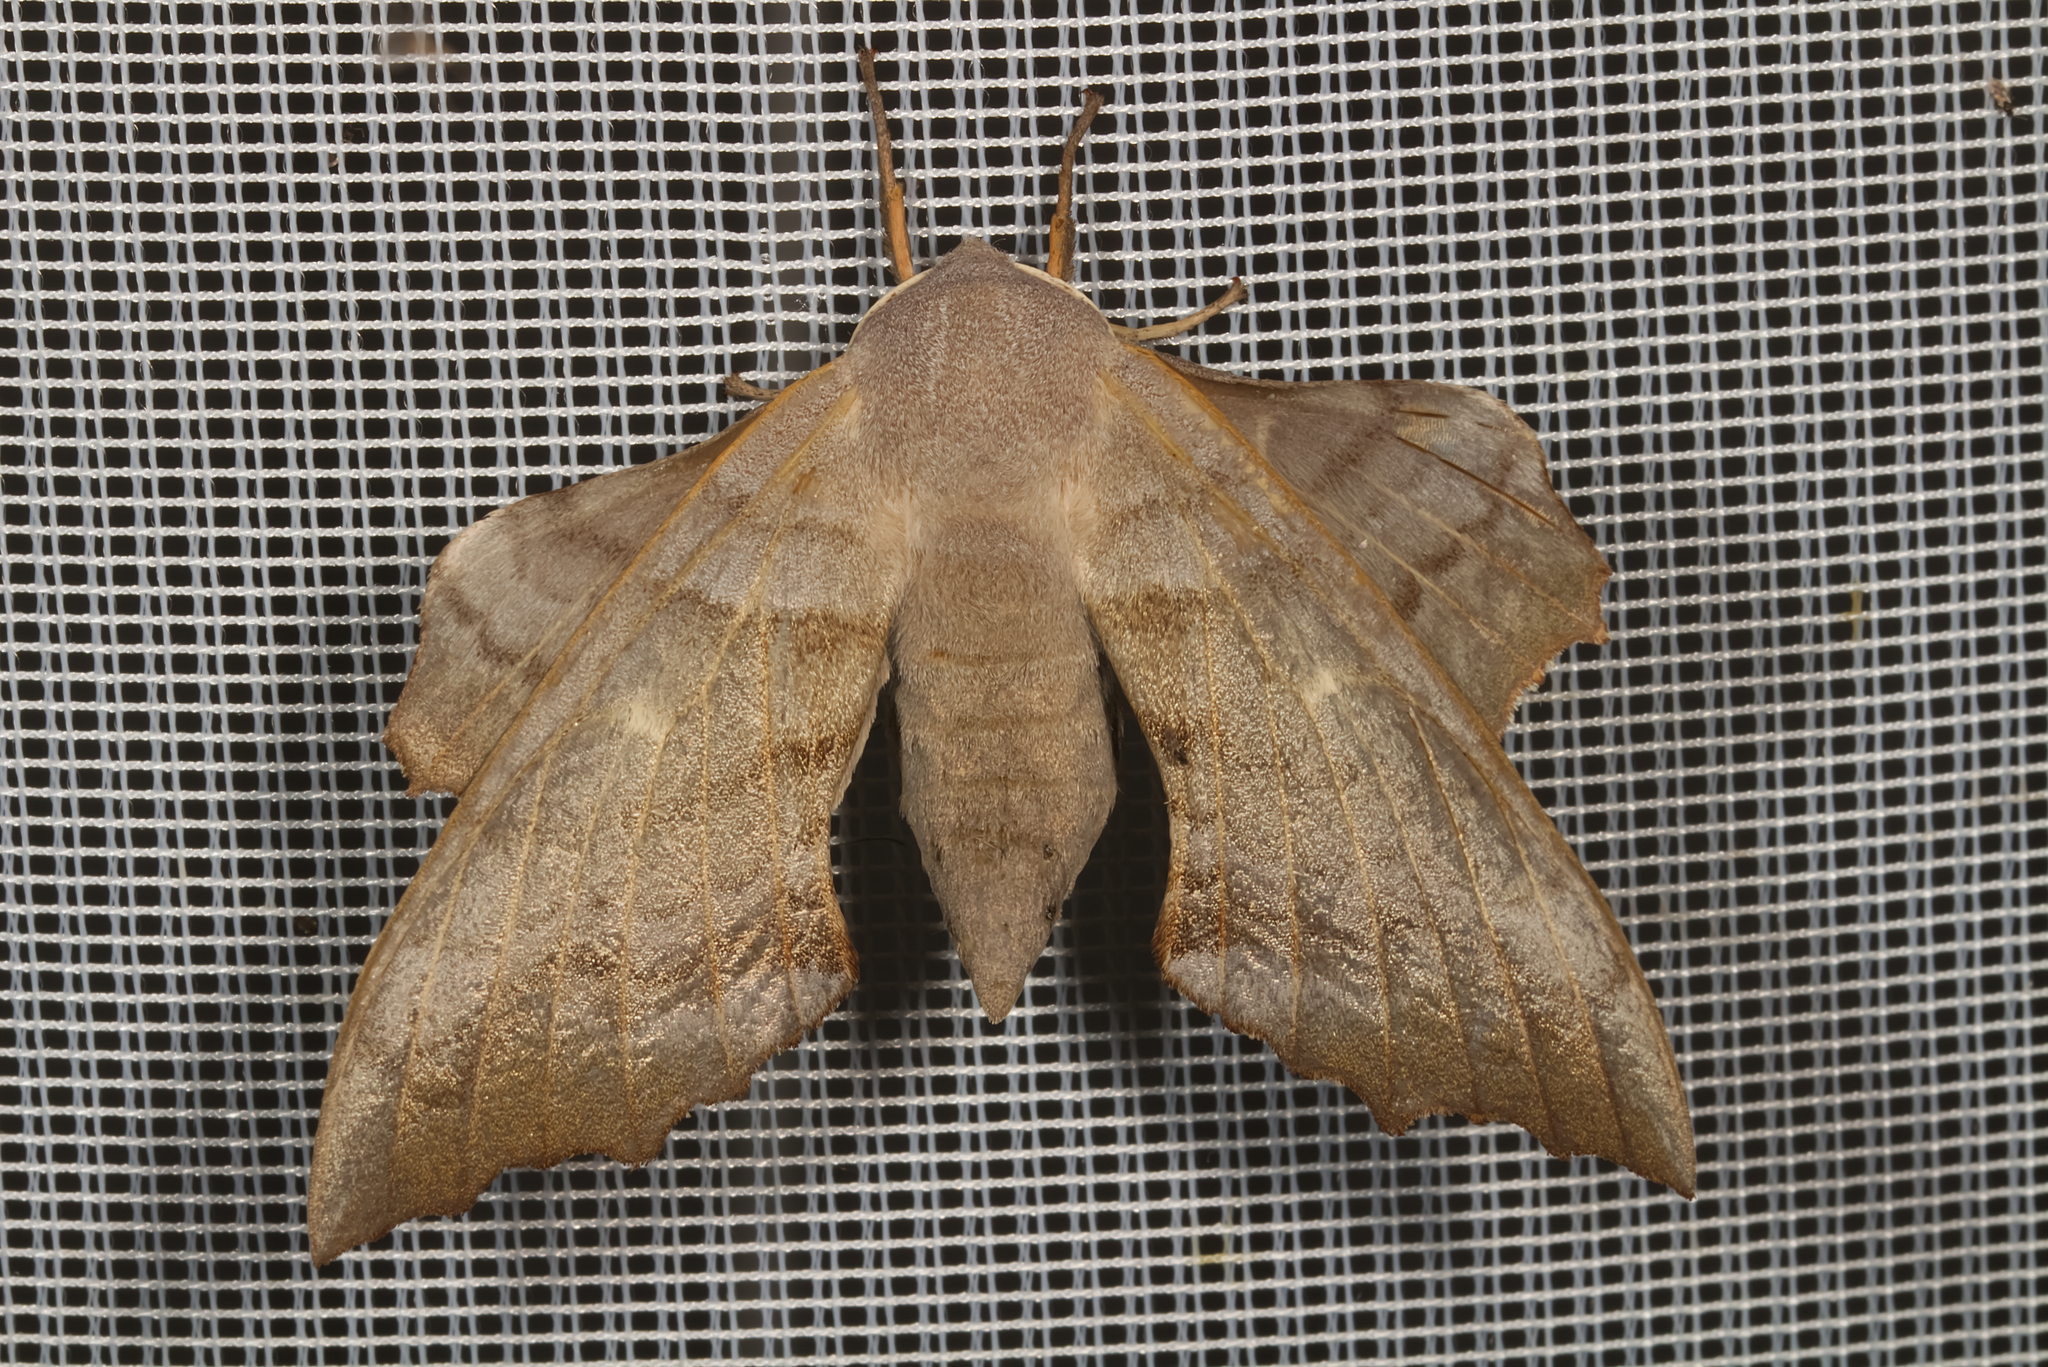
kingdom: Animalia
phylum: Arthropoda
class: Insecta
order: Lepidoptera
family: Sphingidae
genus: Laothoe
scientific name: Laothoe populi
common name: Poplar hawk-moth
